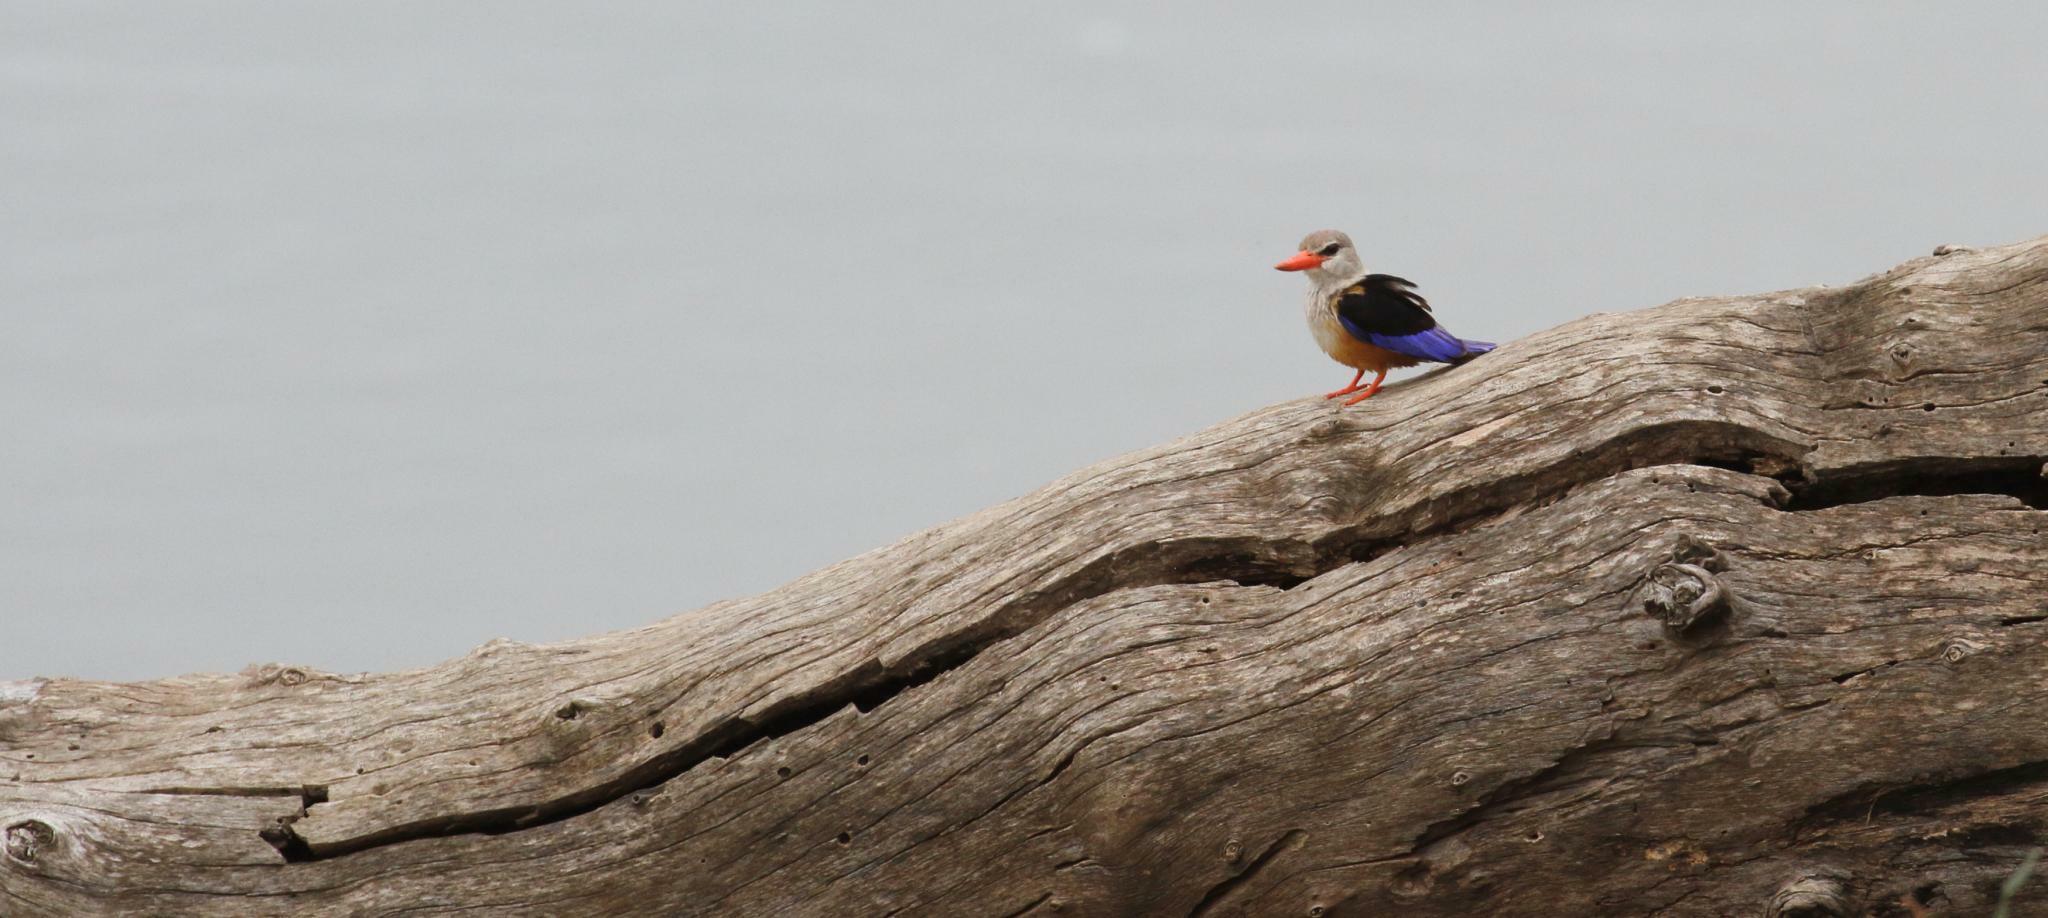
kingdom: Animalia
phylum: Chordata
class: Aves
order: Coraciiformes
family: Alcedinidae
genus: Halcyon
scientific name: Halcyon leucocephala
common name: Grey-headed kingfisher
